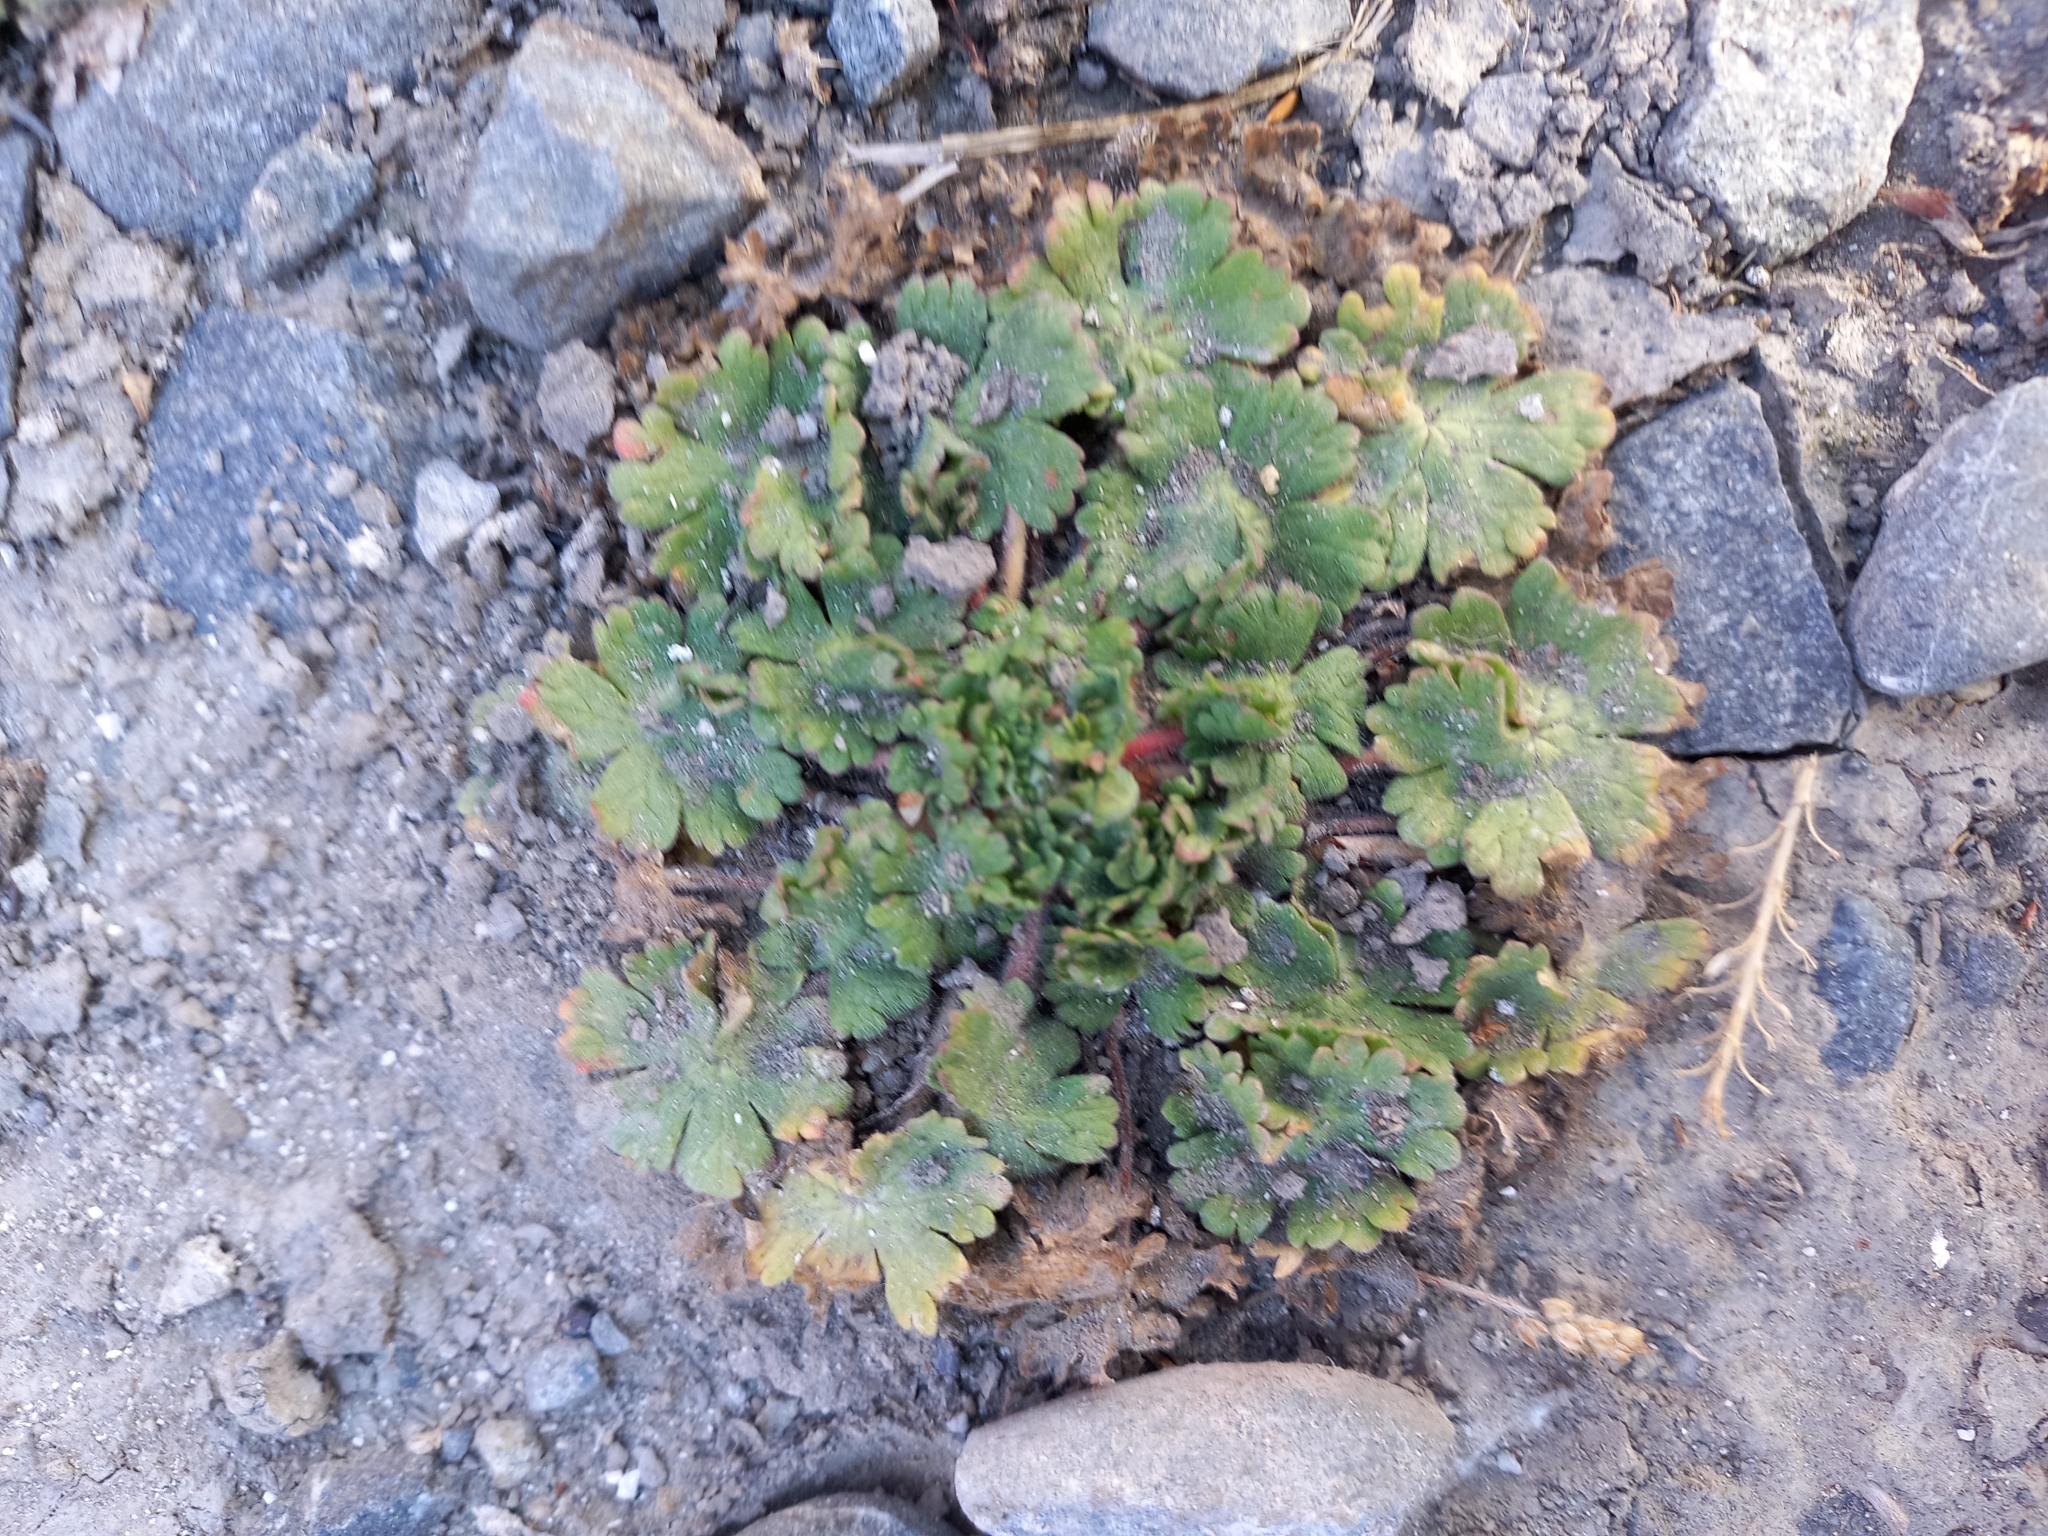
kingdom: Plantae
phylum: Tracheophyta
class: Magnoliopsida
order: Geraniales
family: Geraniaceae
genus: Geranium
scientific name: Geranium molle
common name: Dove's-foot crane's-bill
